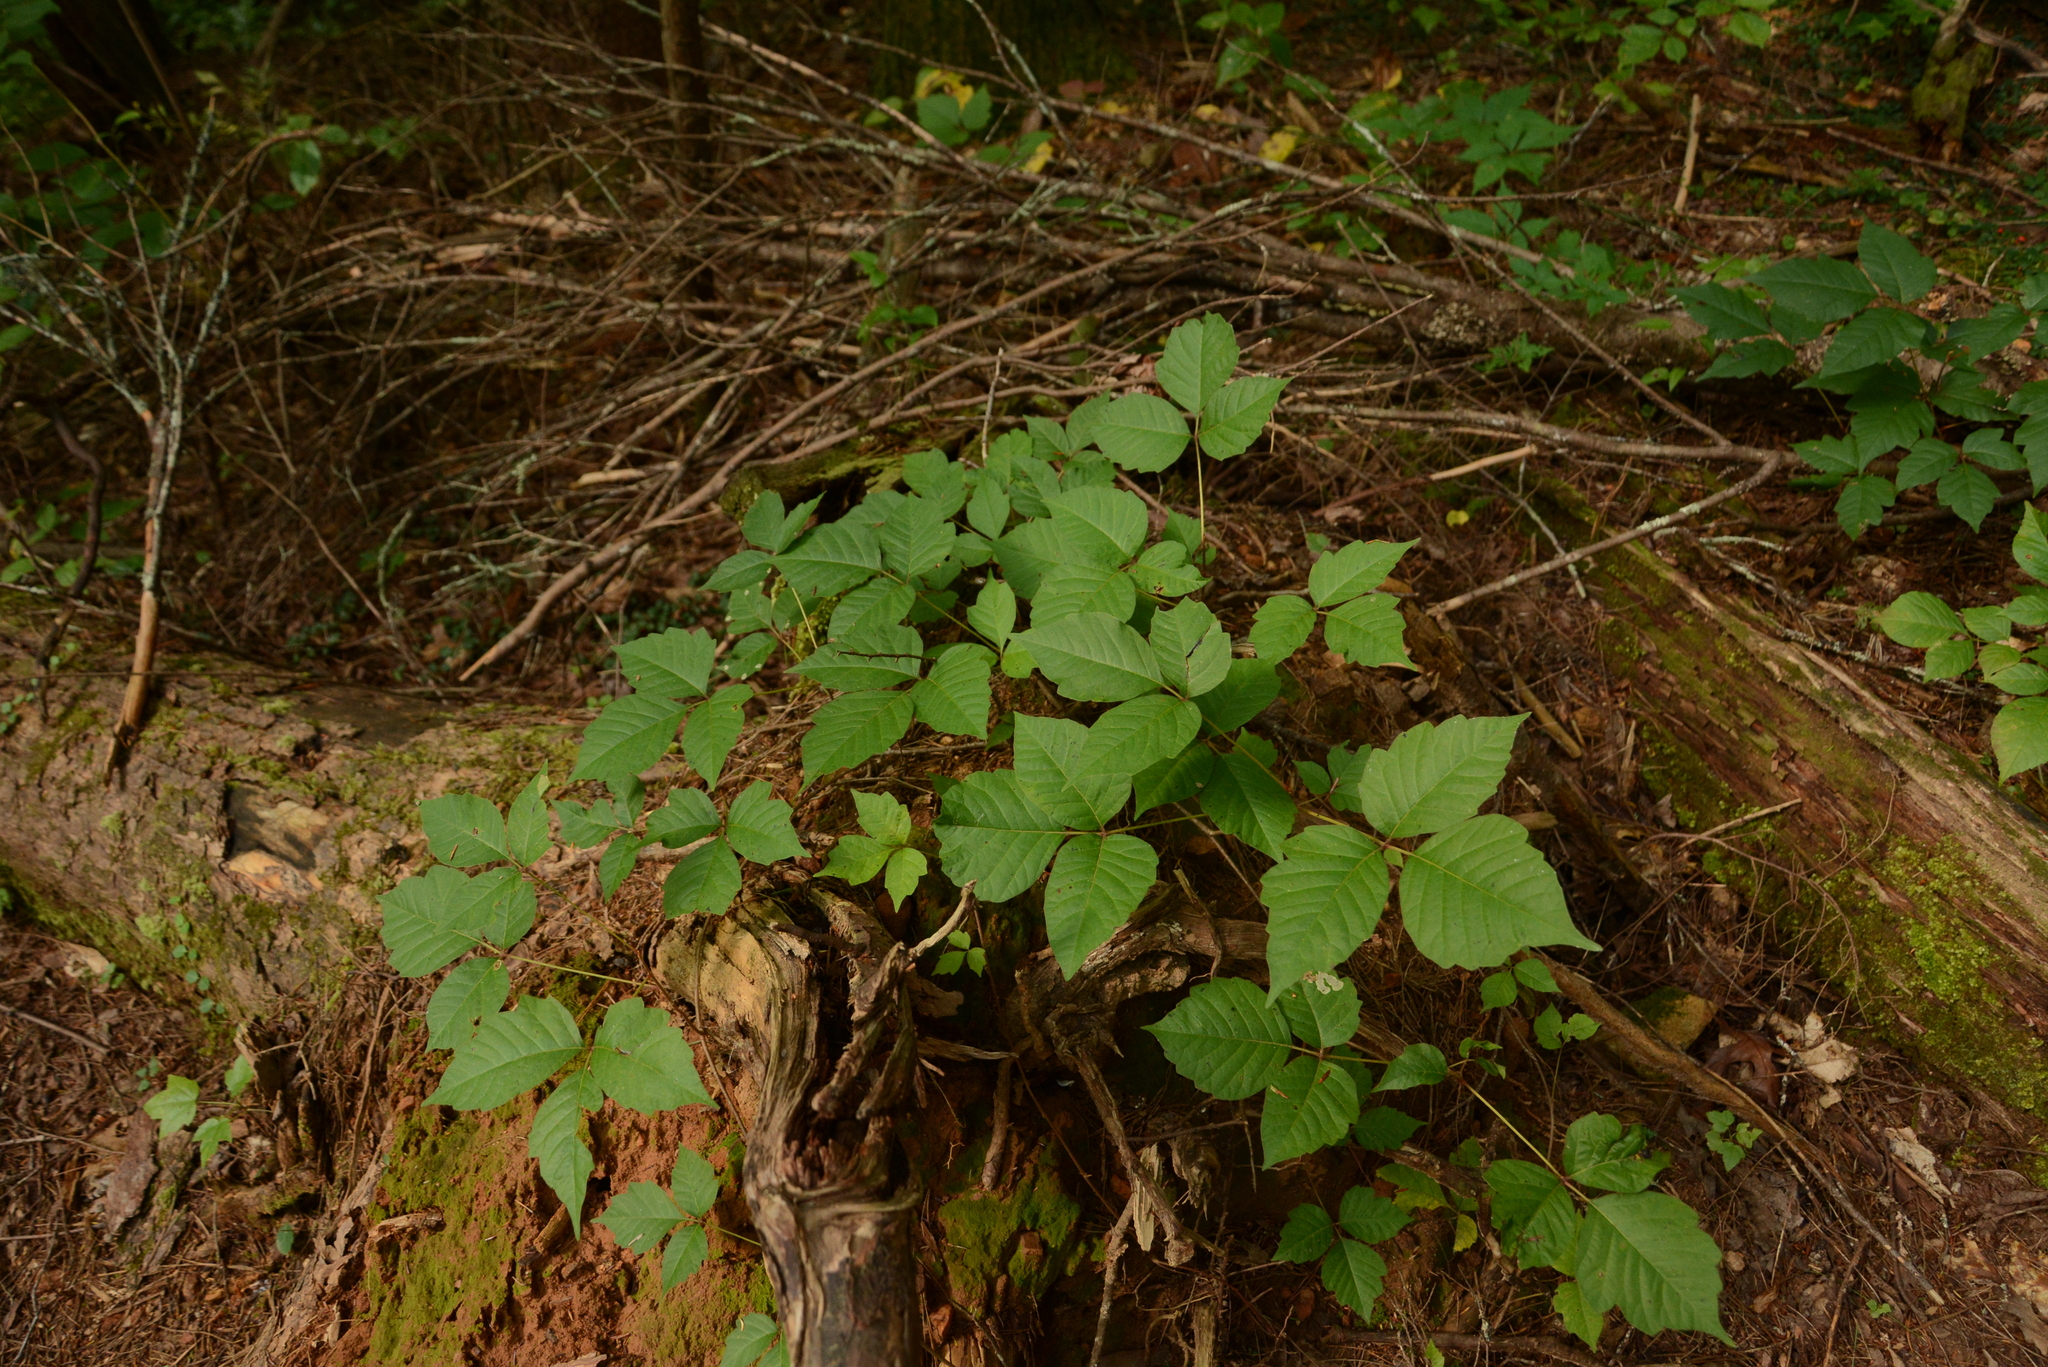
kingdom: Plantae
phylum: Tracheophyta
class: Magnoliopsida
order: Sapindales
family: Anacardiaceae
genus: Toxicodendron
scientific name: Toxicodendron radicans
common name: Poison ivy
